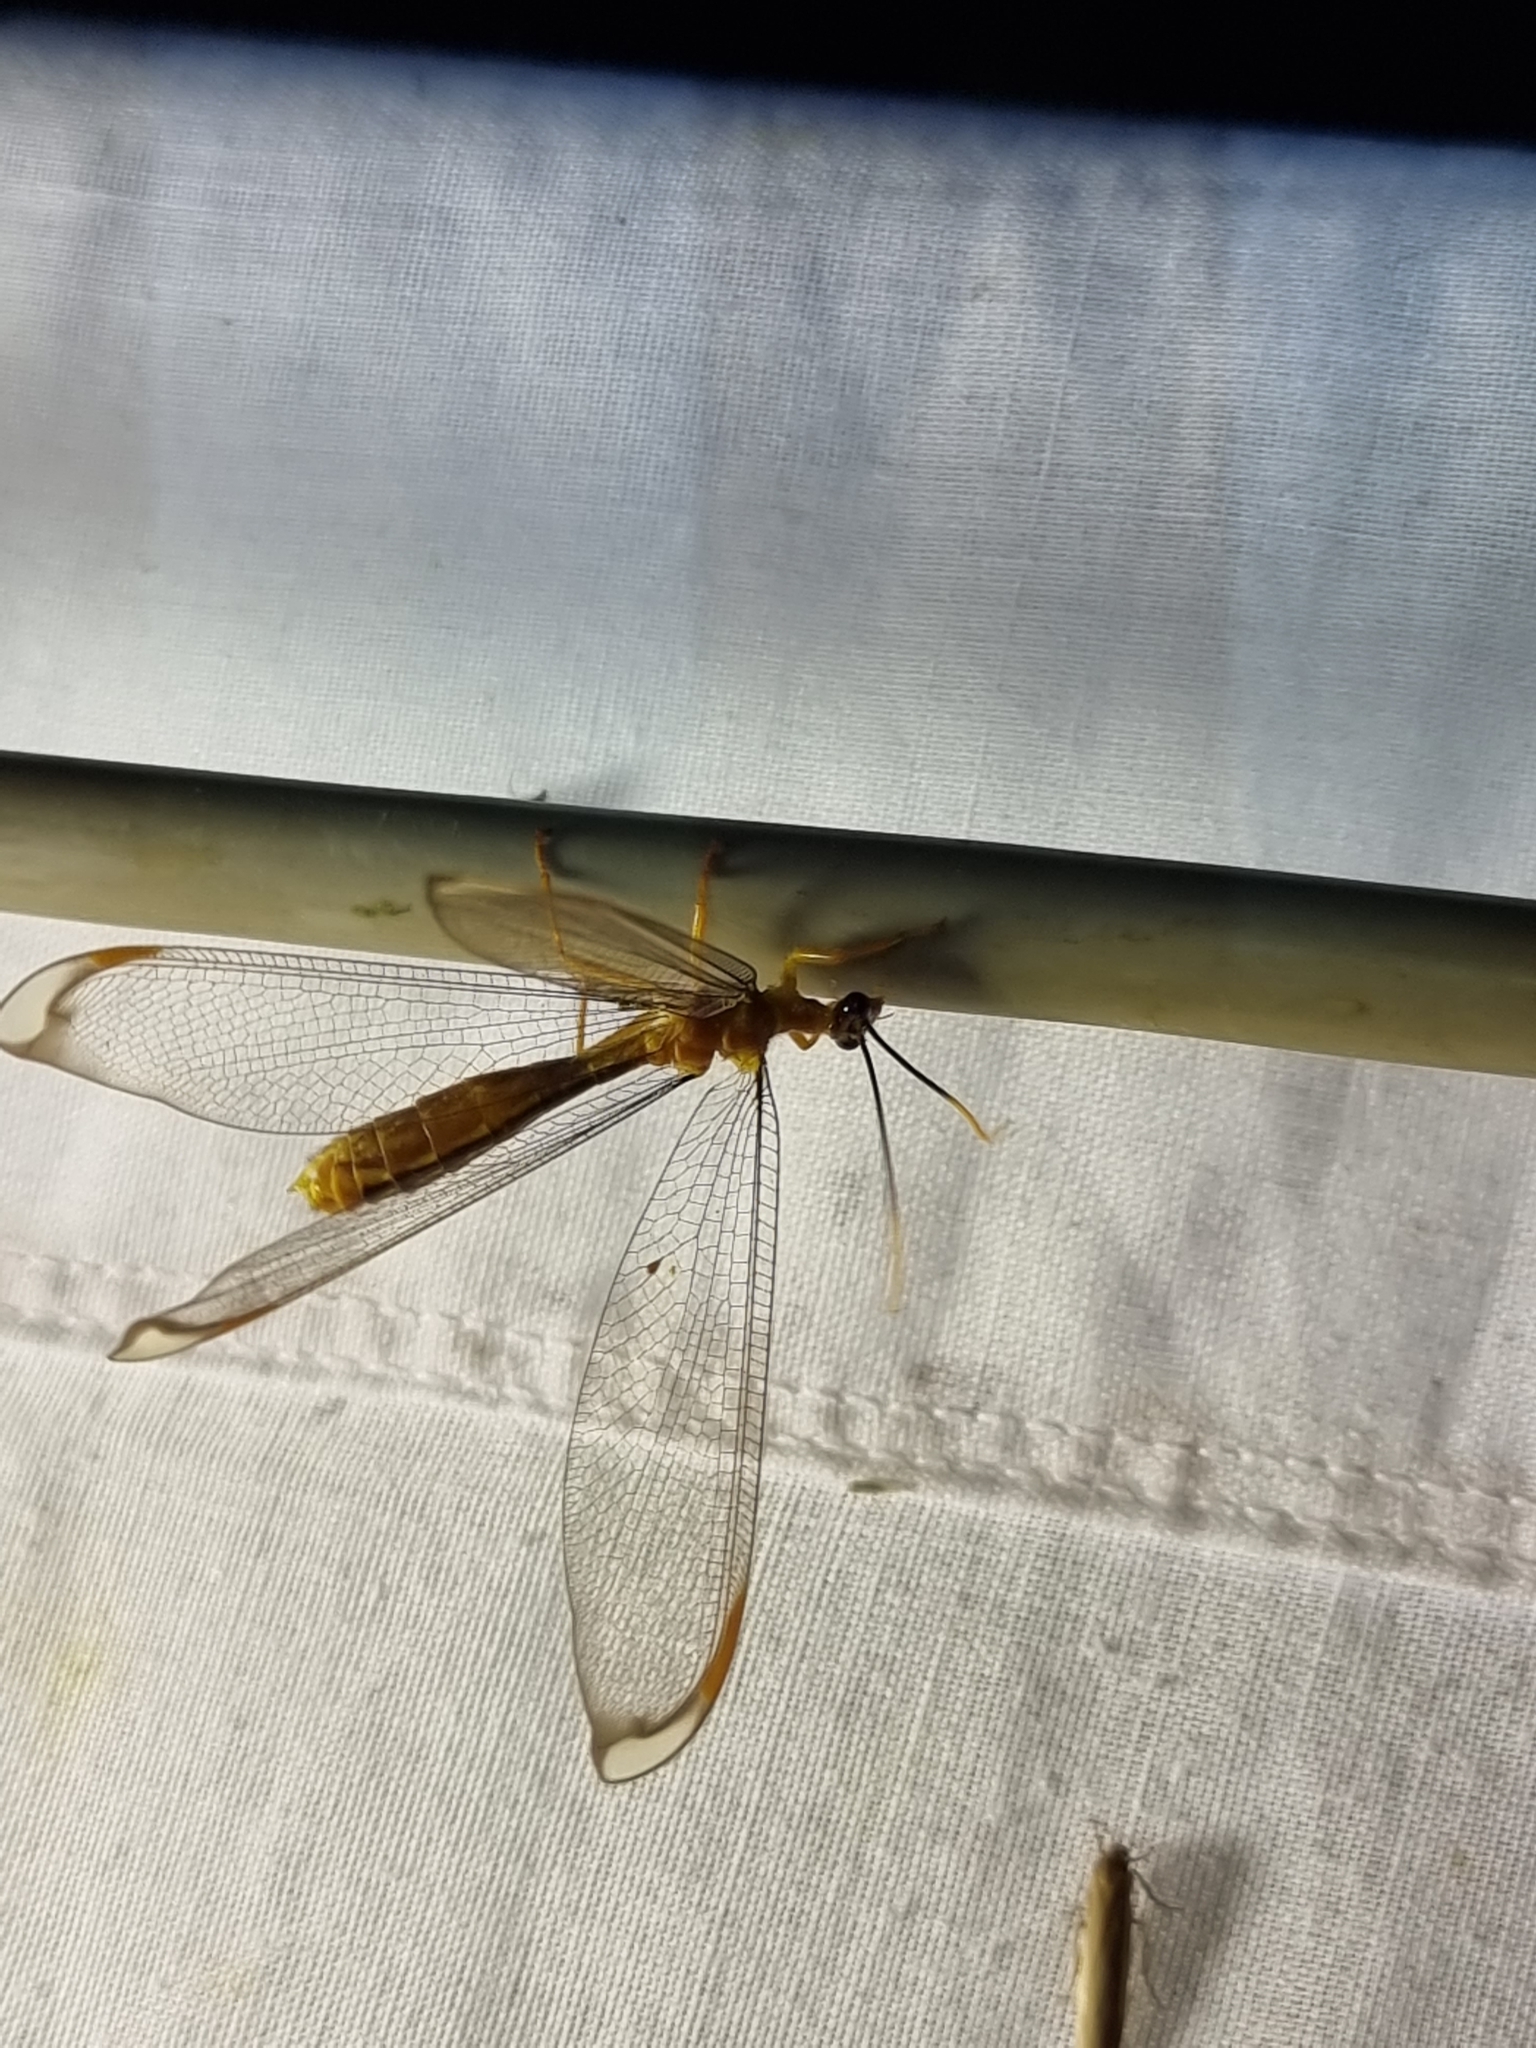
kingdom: Animalia
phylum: Arthropoda
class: Insecta
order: Neuroptera
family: Nymphidae
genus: Nymphes
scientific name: Nymphes myrmeleonoides
